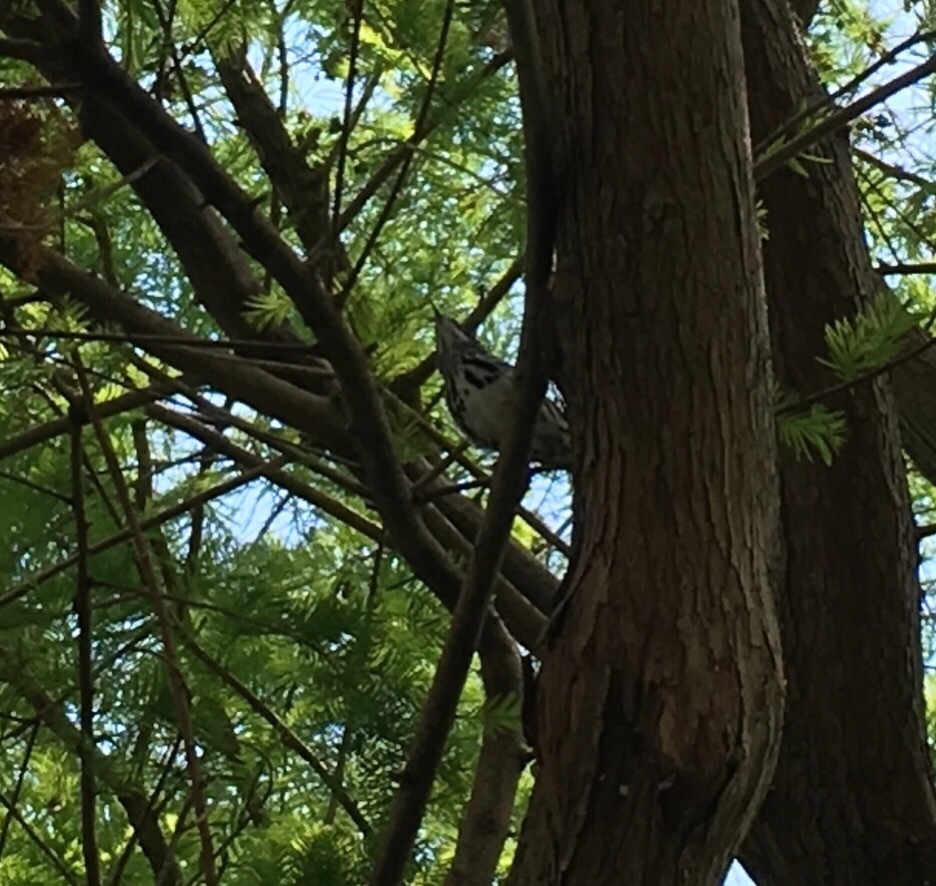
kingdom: Animalia
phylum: Chordata
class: Aves
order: Passeriformes
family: Parulidae
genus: Mniotilta
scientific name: Mniotilta varia
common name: Black-and-white warbler
